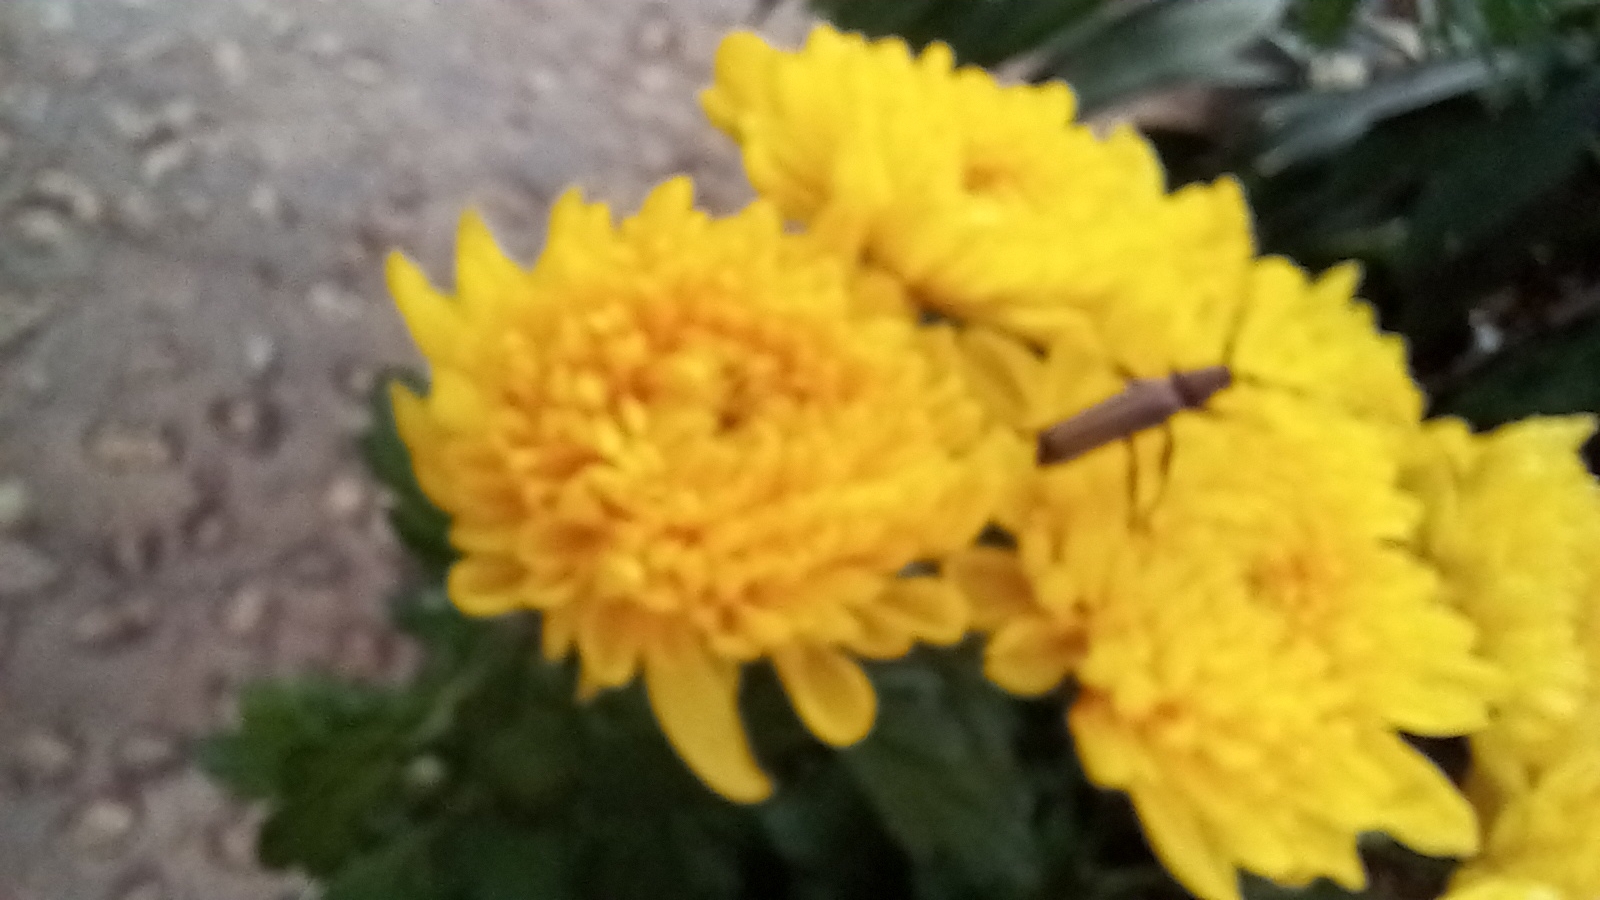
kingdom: Animalia
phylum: Arthropoda
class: Insecta
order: Coleoptera
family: Cerambycidae
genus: Xystrocera
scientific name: Xystrocera globosa
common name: Peach-tree longhorn
